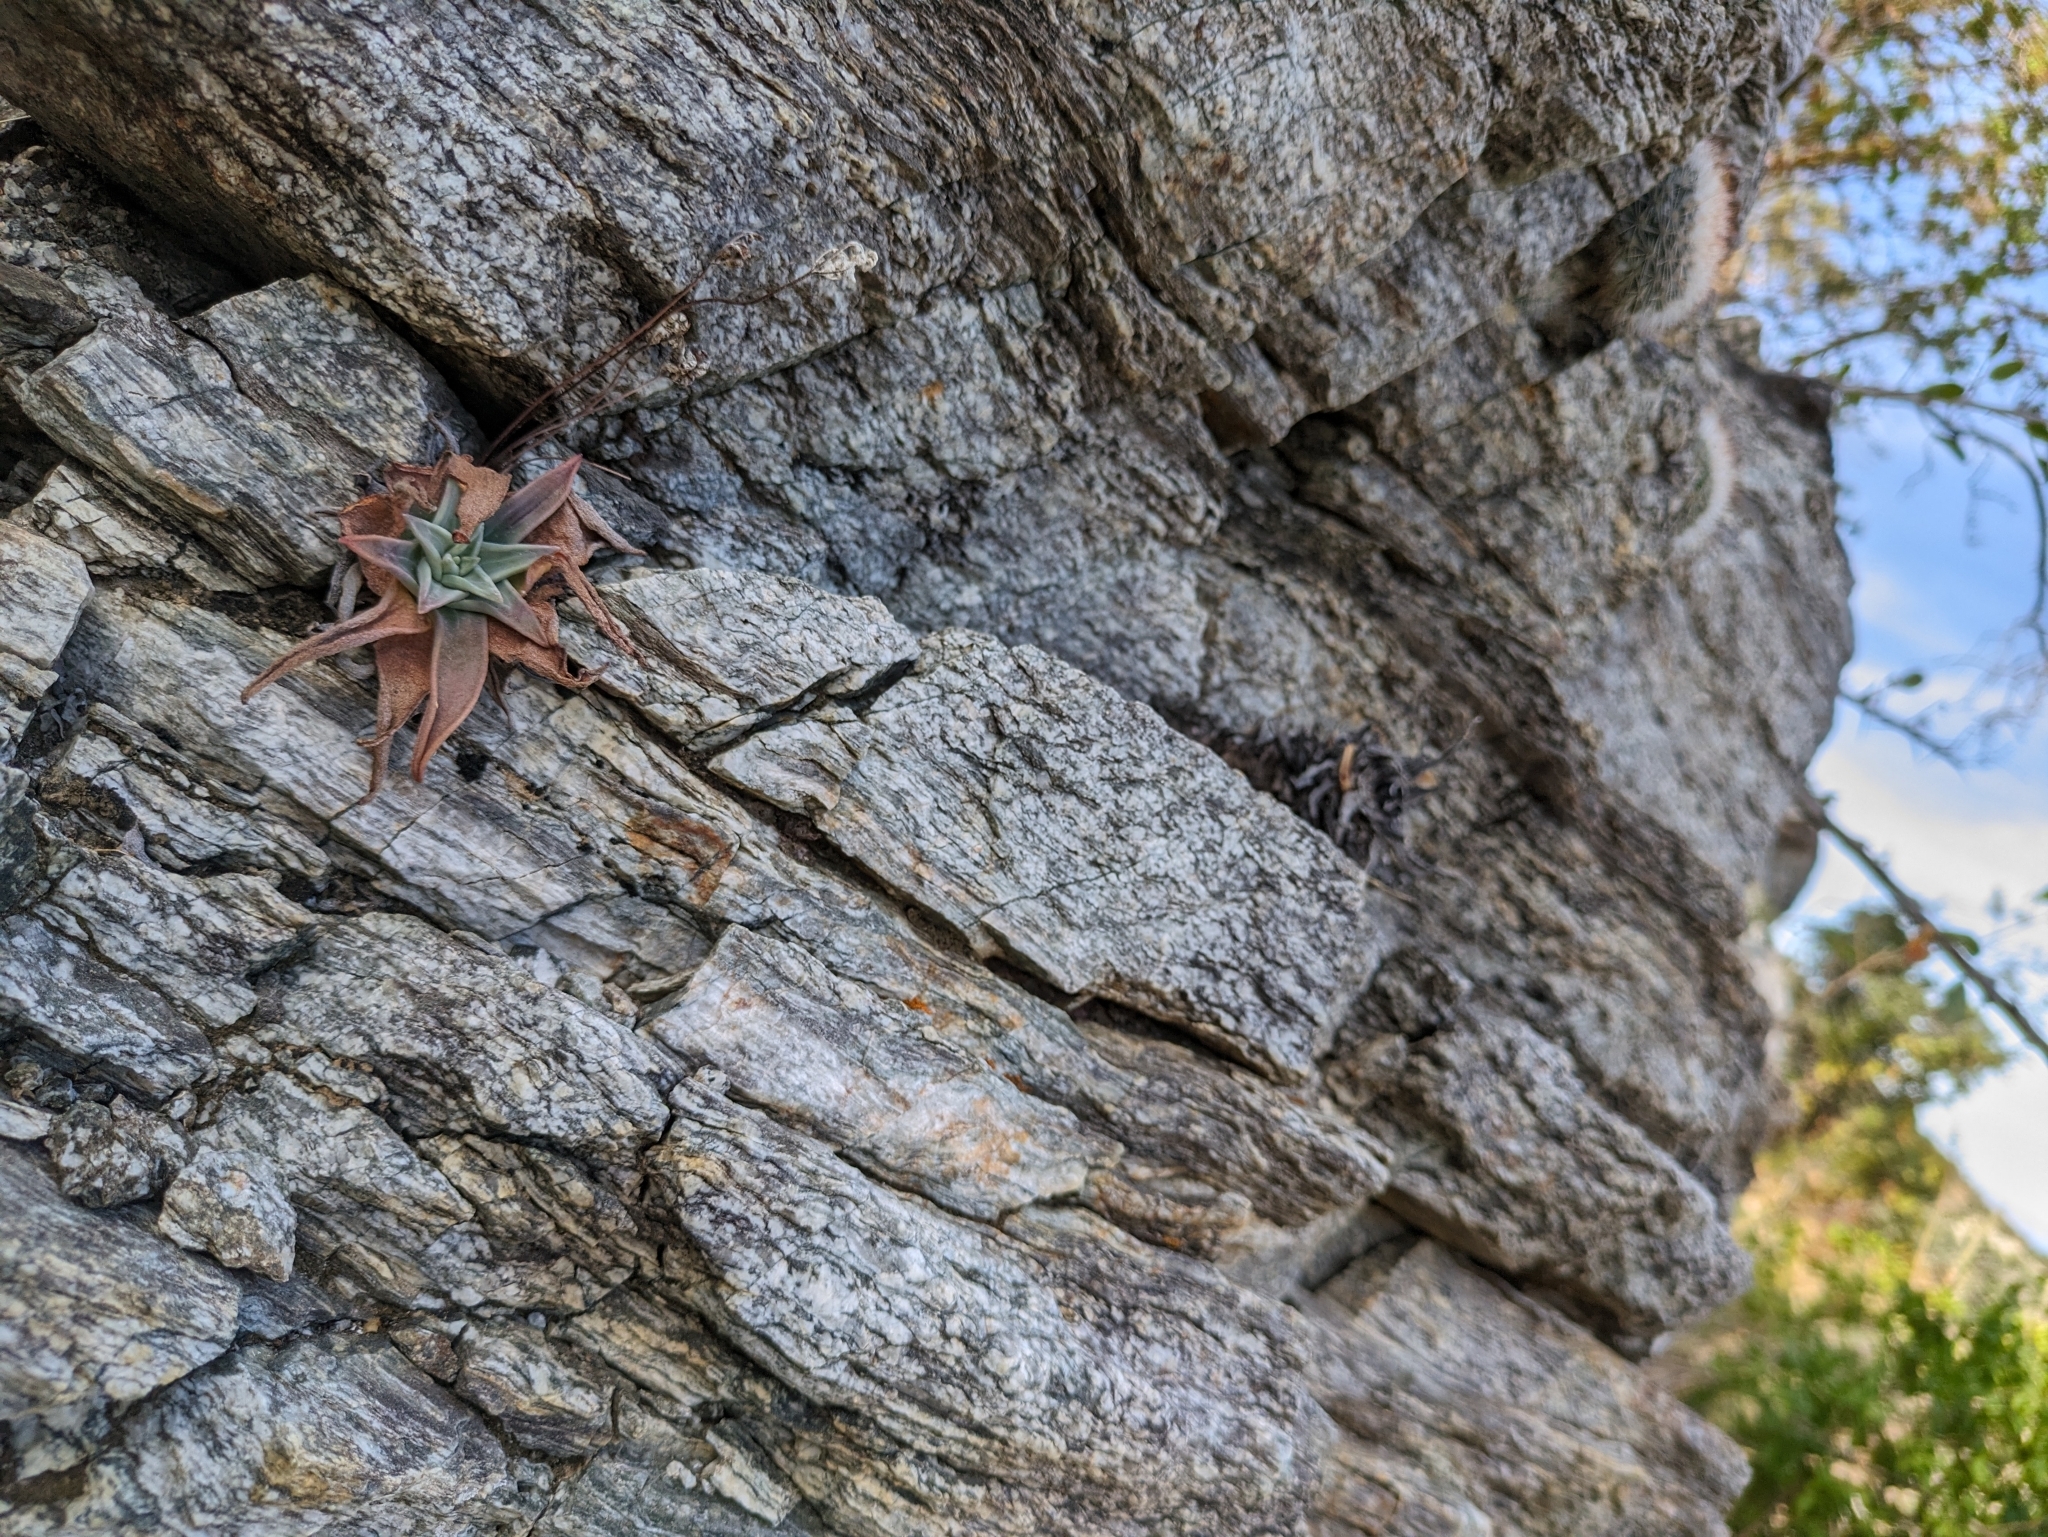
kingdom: Plantae
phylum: Tracheophyta
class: Magnoliopsida
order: Saxifragales
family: Crassulaceae
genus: Dudleya
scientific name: Dudleya nubigena
